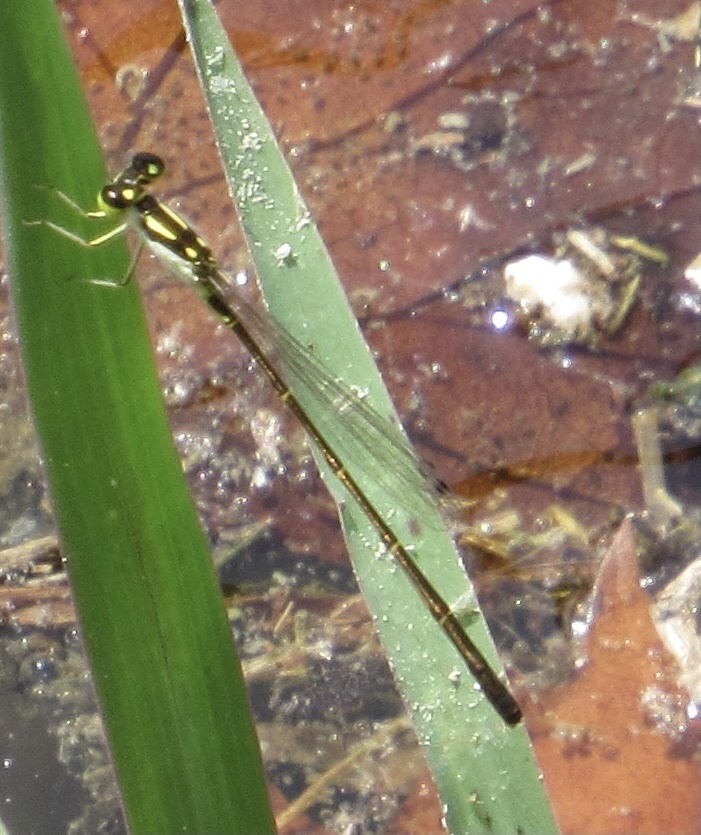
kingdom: Animalia
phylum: Arthropoda
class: Insecta
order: Odonata
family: Coenagrionidae
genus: Ischnura
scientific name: Ischnura posita
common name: Fragile forktail
